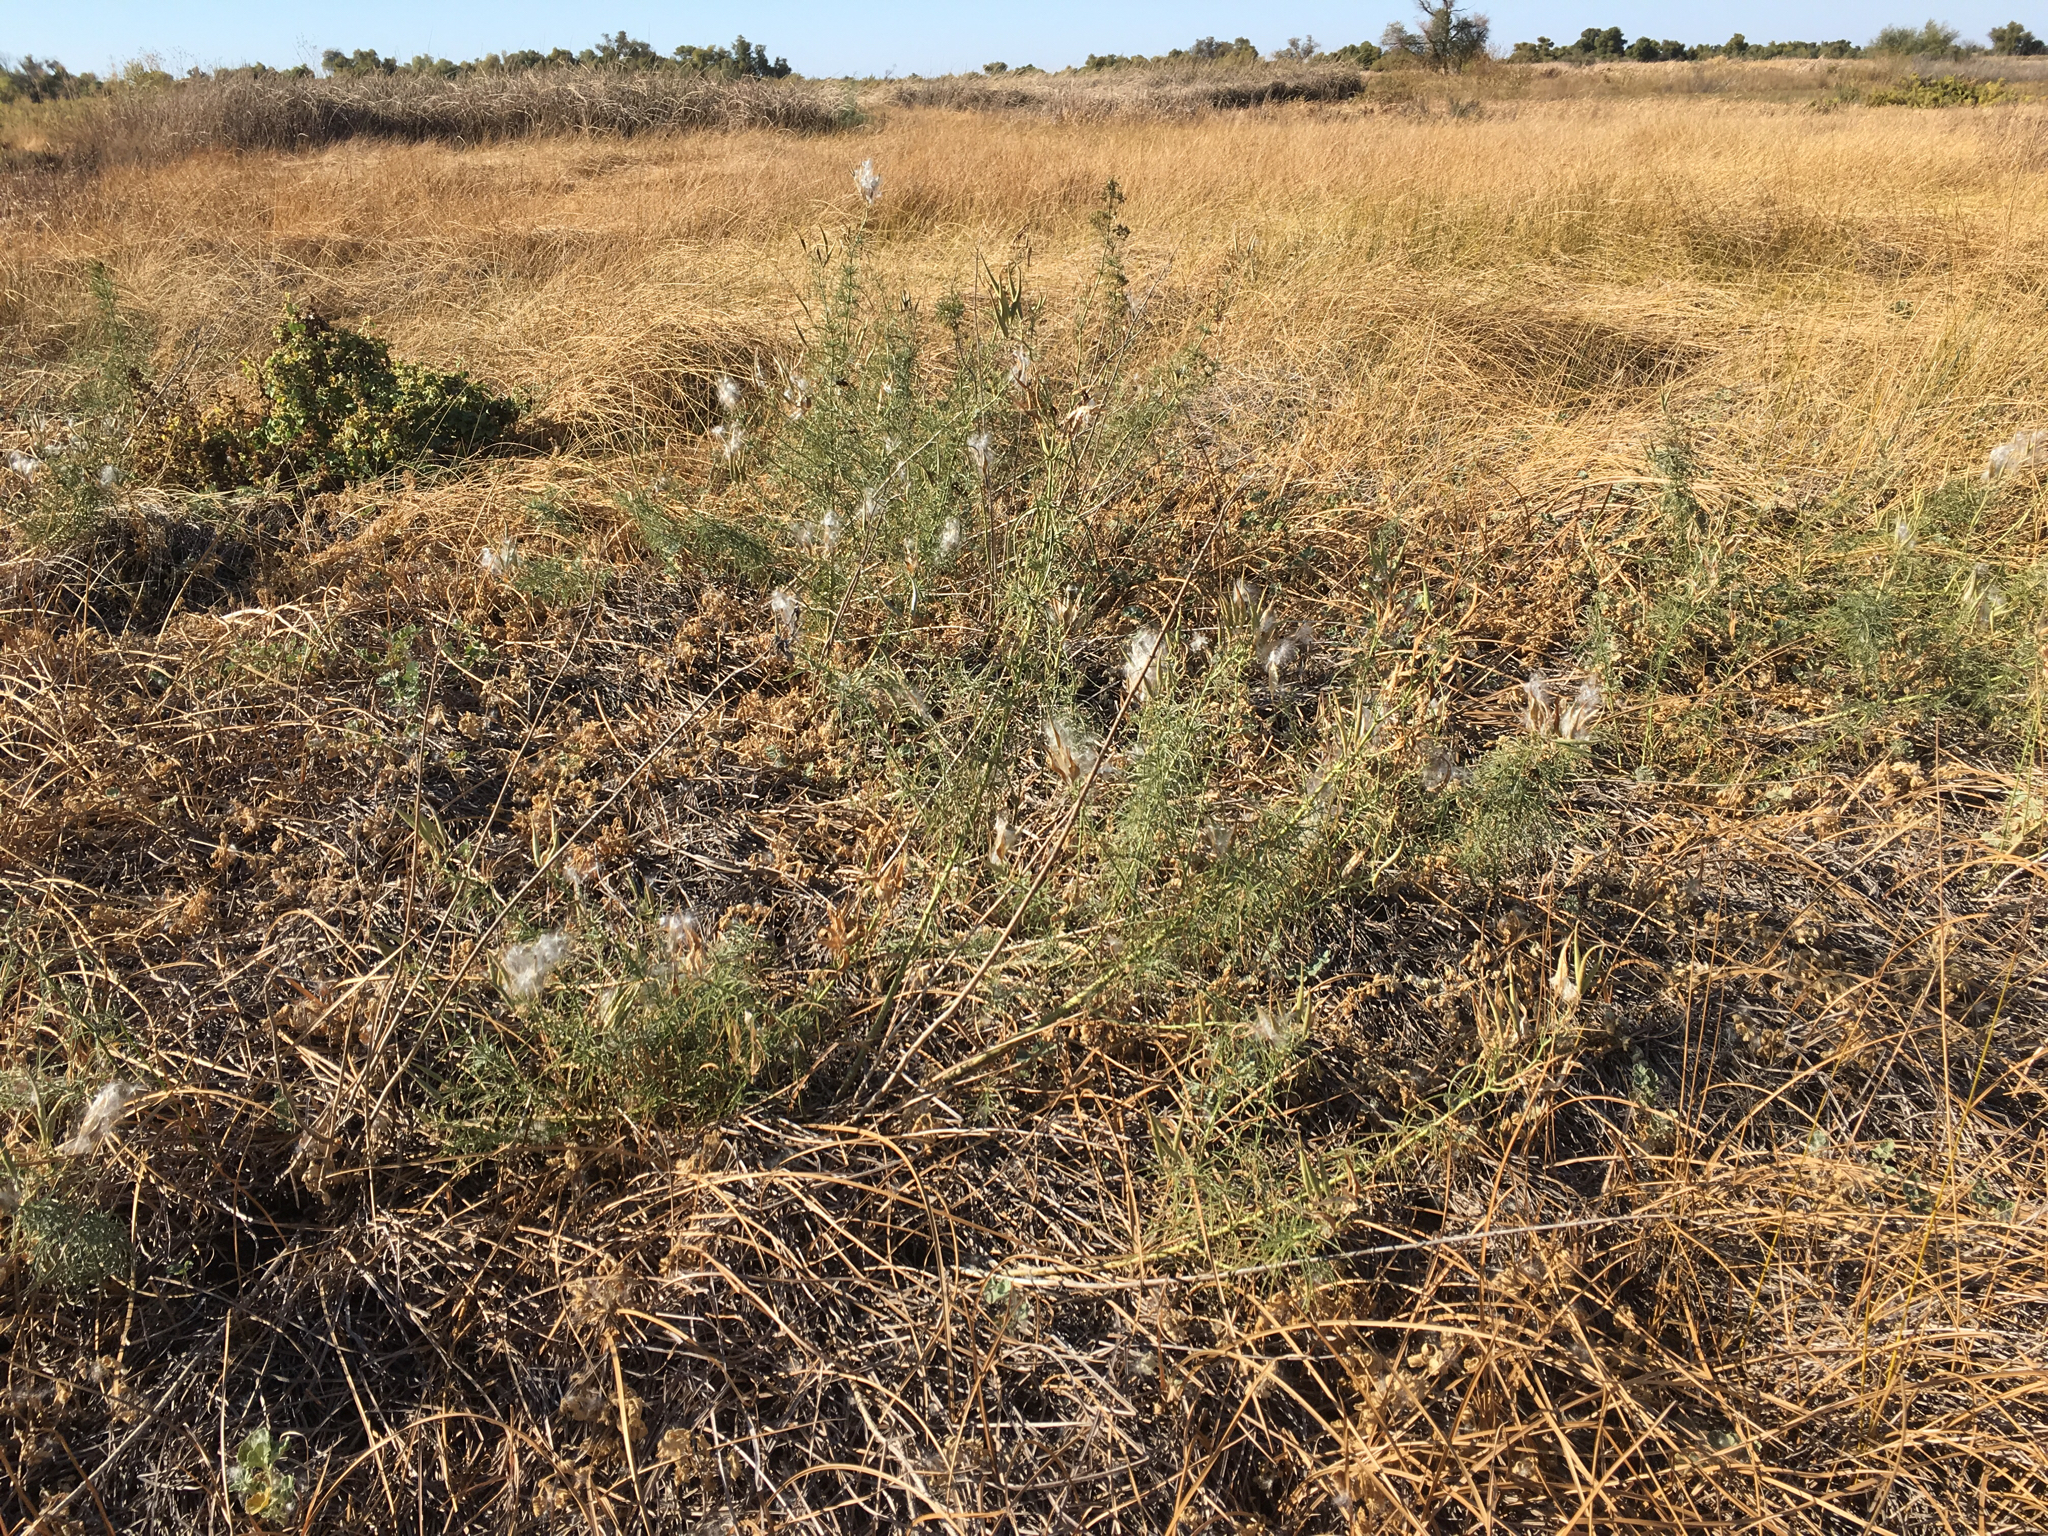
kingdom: Plantae
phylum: Tracheophyta
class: Magnoliopsida
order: Gentianales
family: Apocynaceae
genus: Asclepias
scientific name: Asclepias fascicularis
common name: Mexican milkweed
